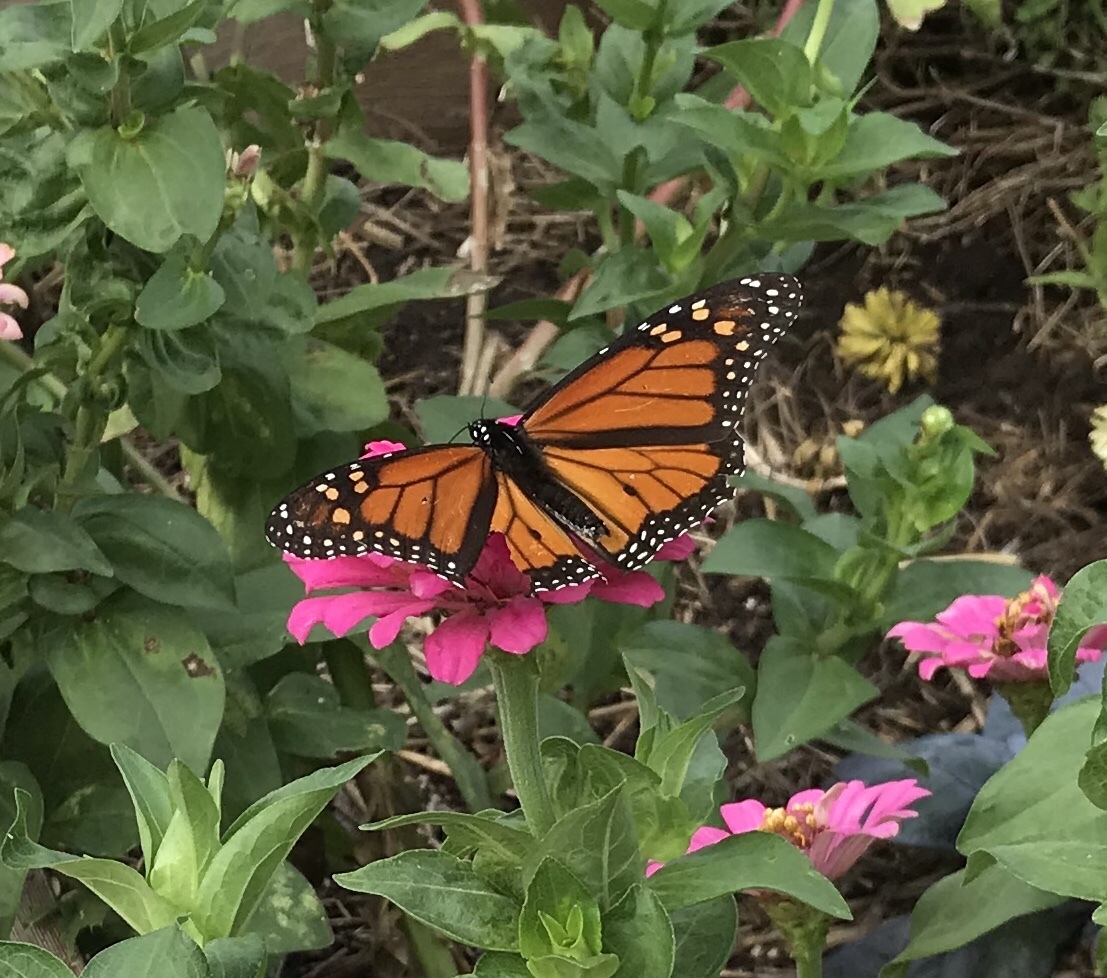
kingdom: Animalia
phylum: Arthropoda
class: Insecta
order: Lepidoptera
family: Nymphalidae
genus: Danaus
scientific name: Danaus plexippus
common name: Monarch
